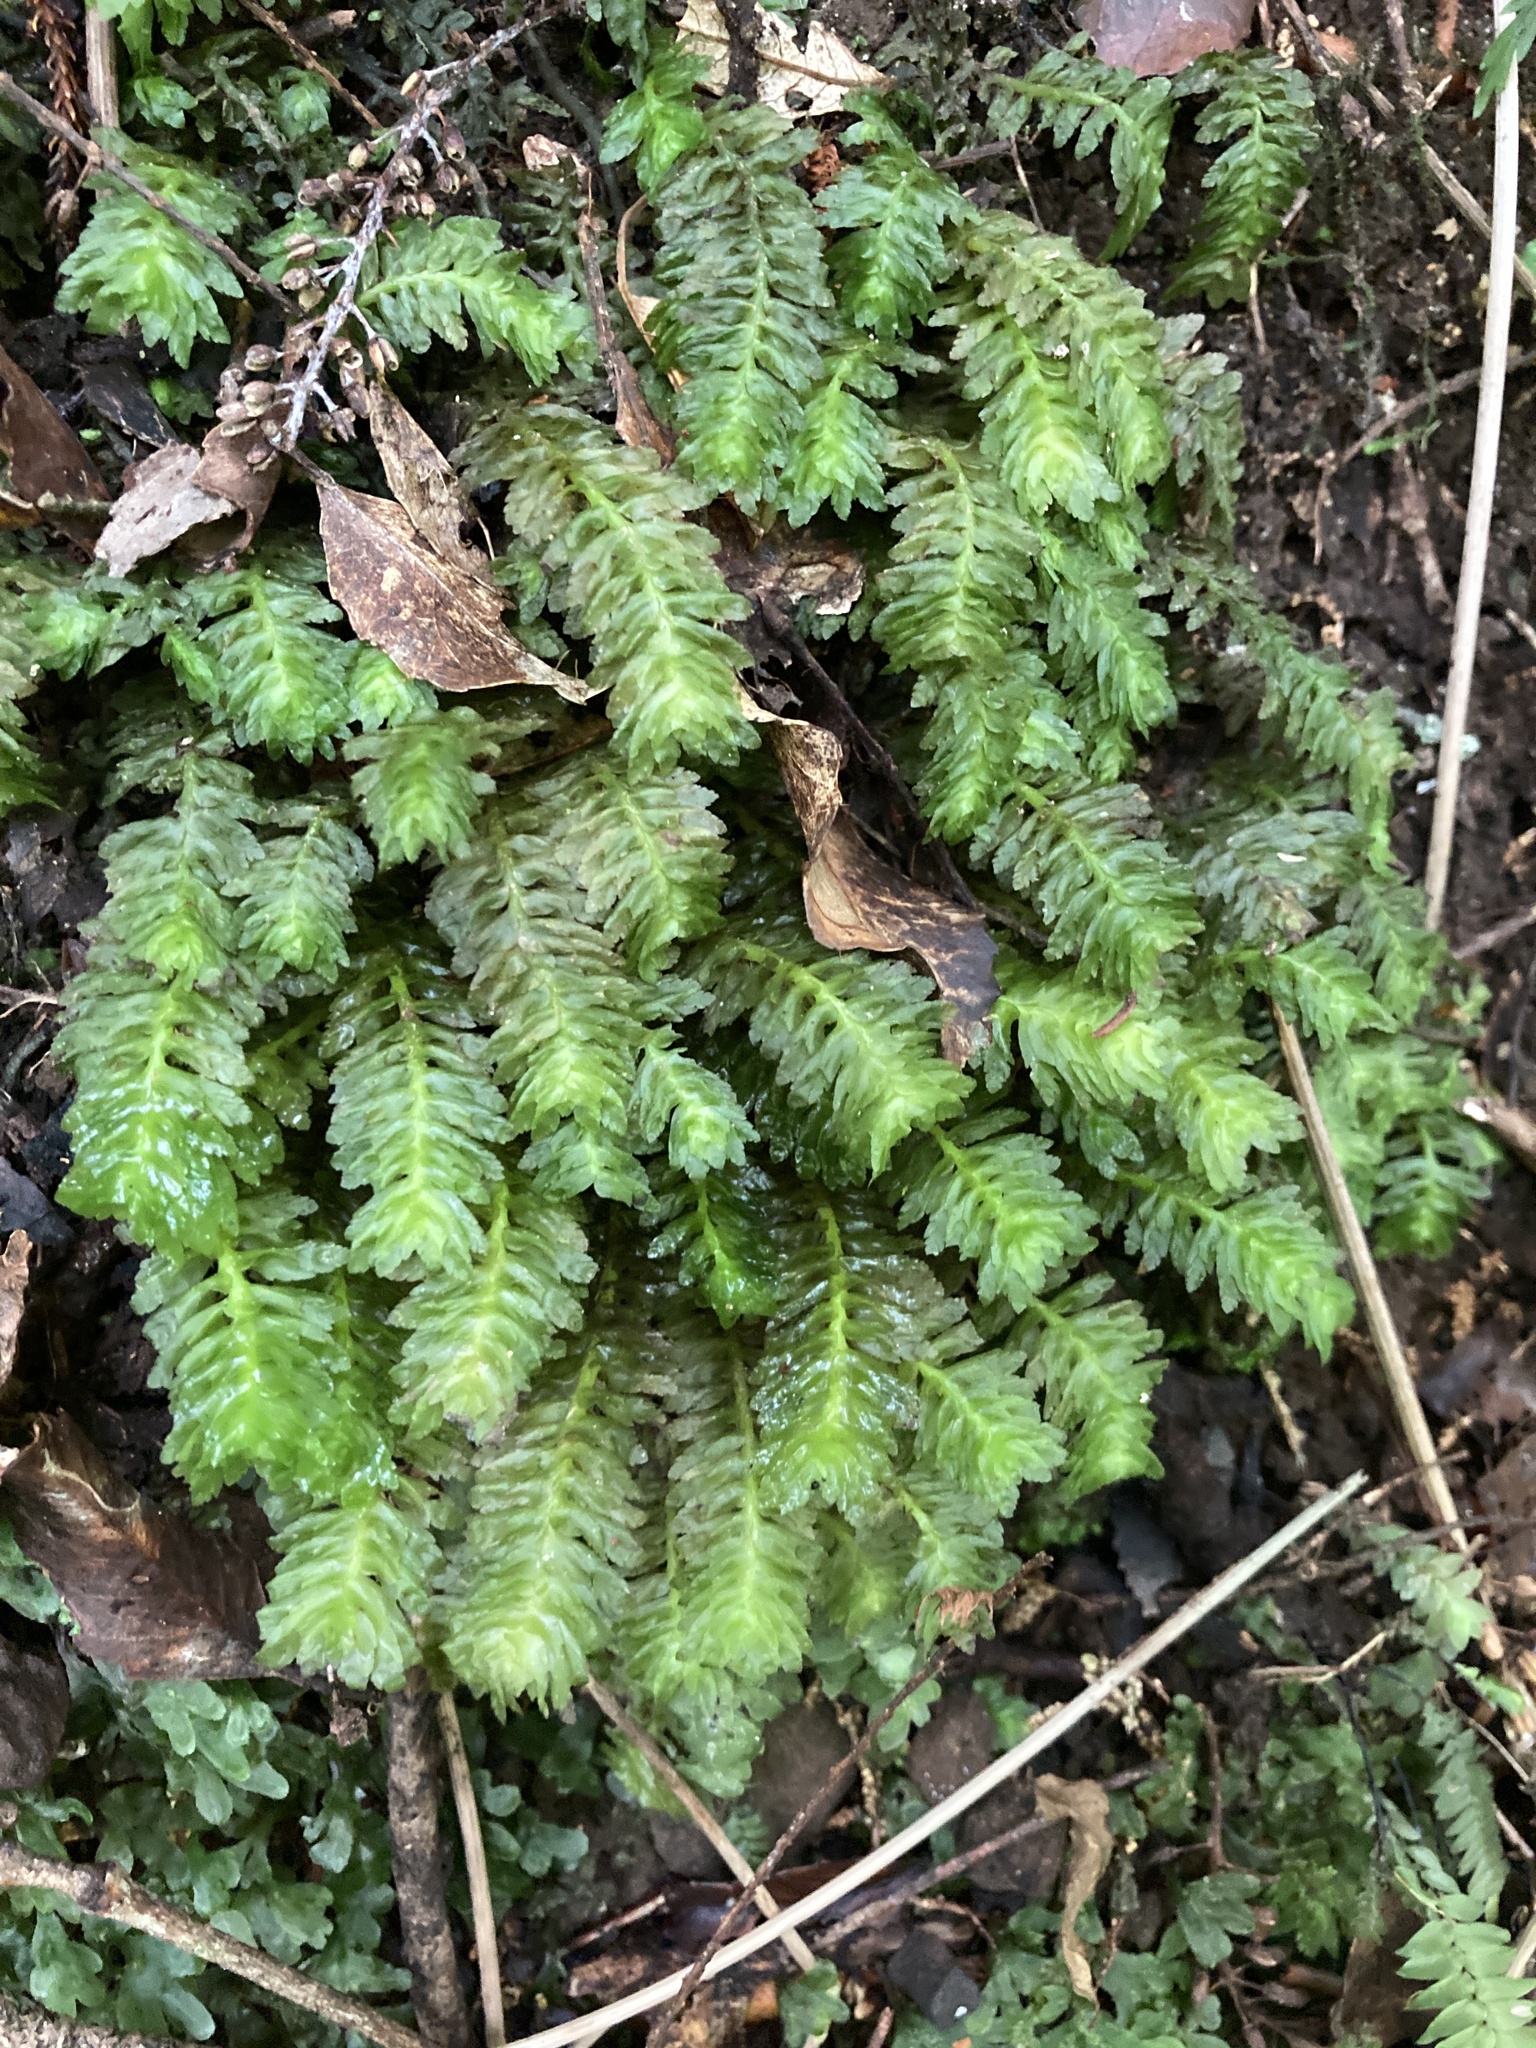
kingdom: Plantae
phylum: Marchantiophyta
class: Jungermanniopsida
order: Jungermanniales
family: Schistochilaceae
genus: Schistochila
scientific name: Schistochila appendiculata
